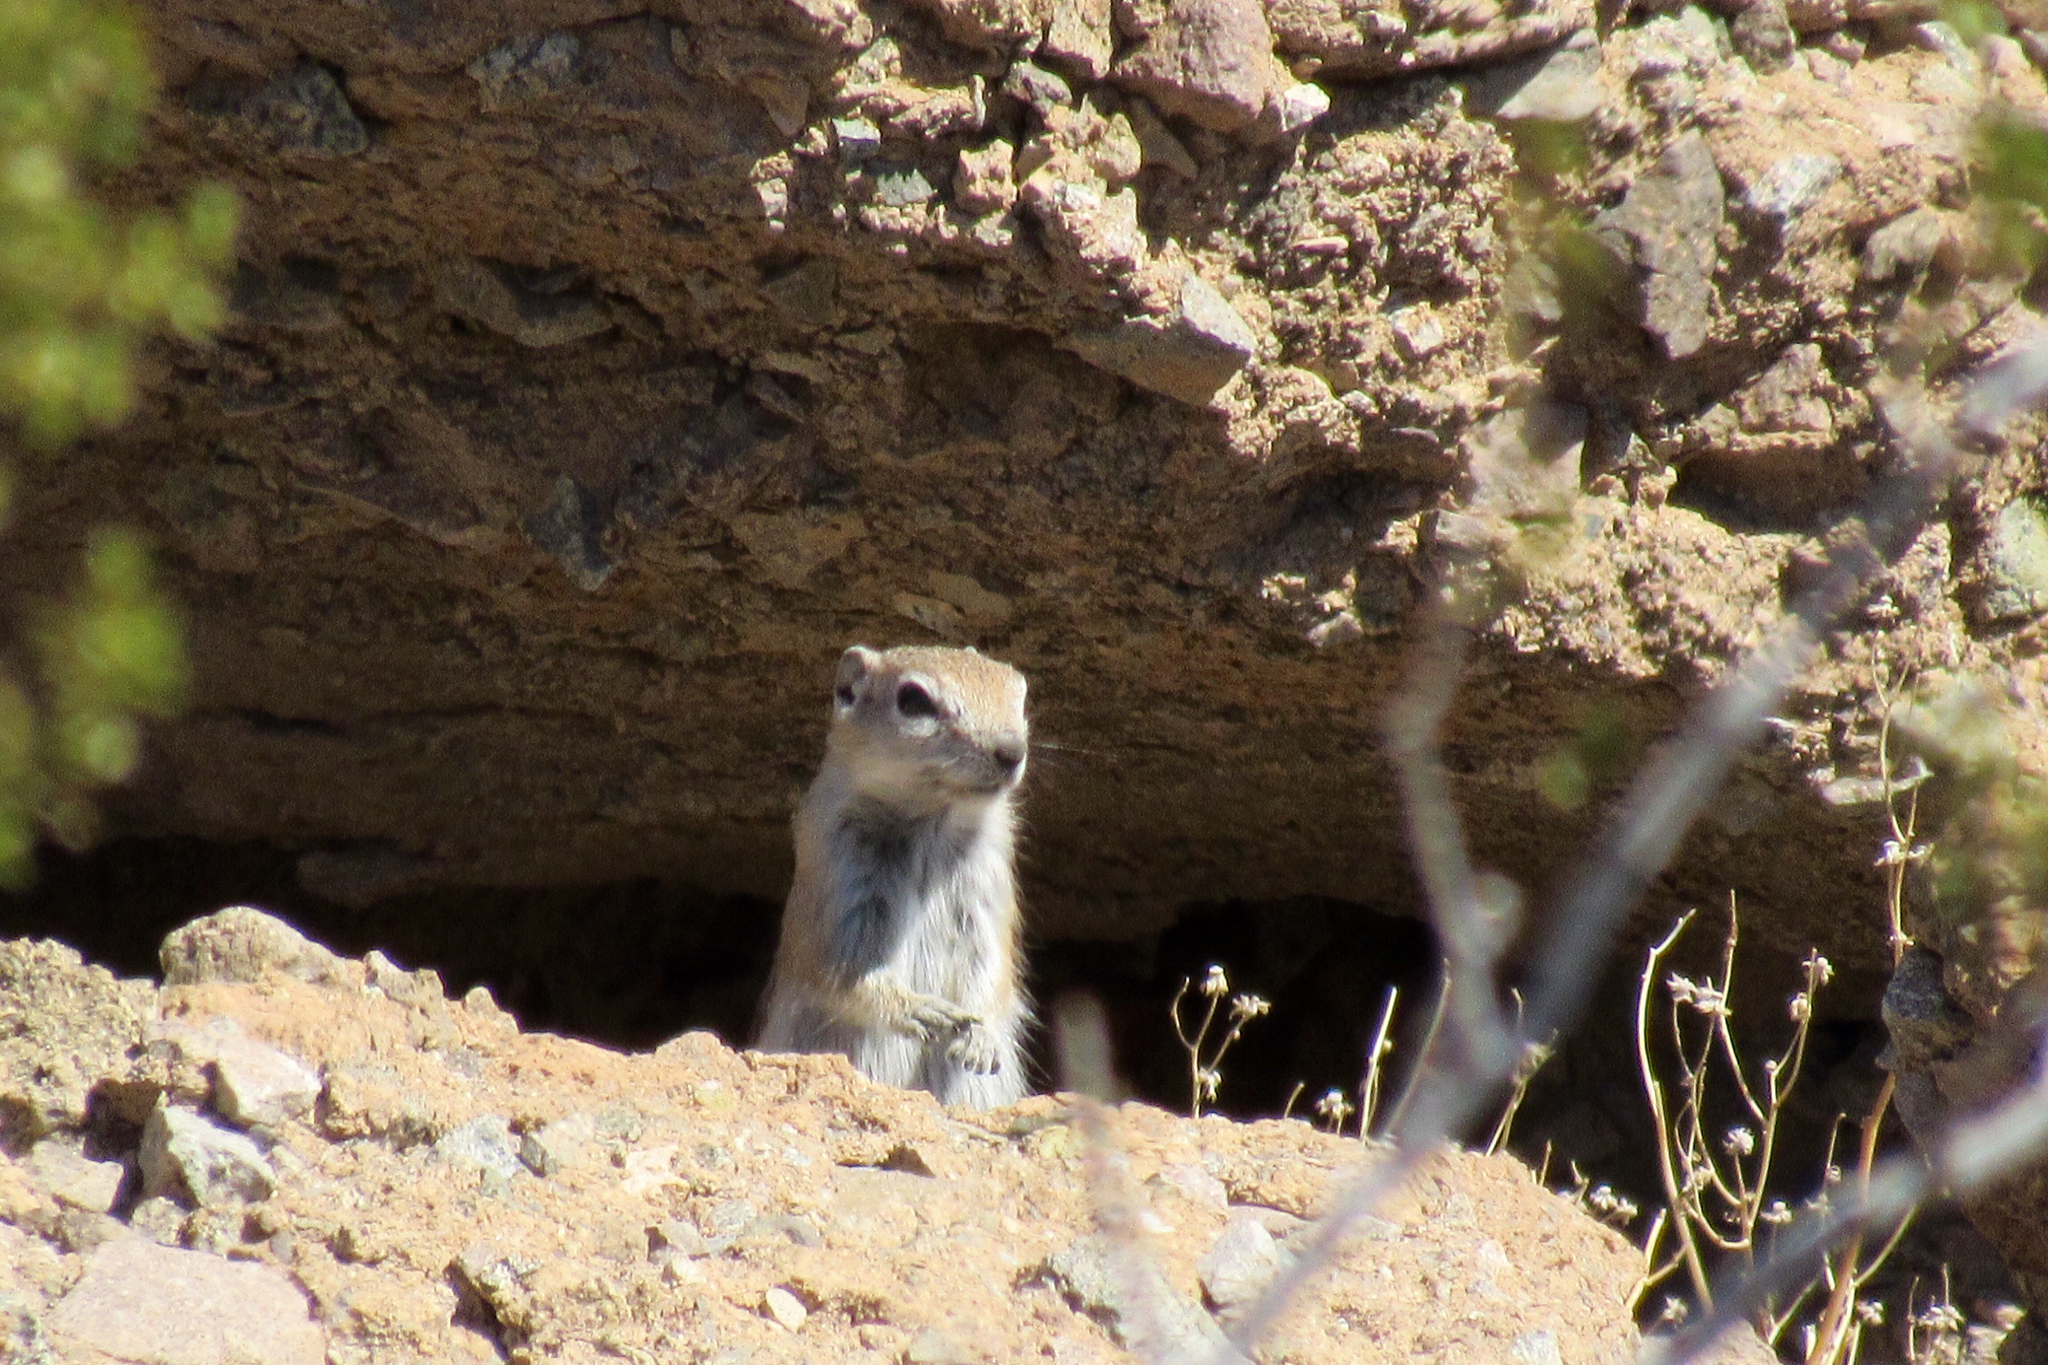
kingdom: Animalia
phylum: Chordata
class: Mammalia
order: Rodentia
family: Sciuridae
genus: Ammospermophilus
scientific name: Ammospermophilus leucurus
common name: White-tailed antelope squirrel
